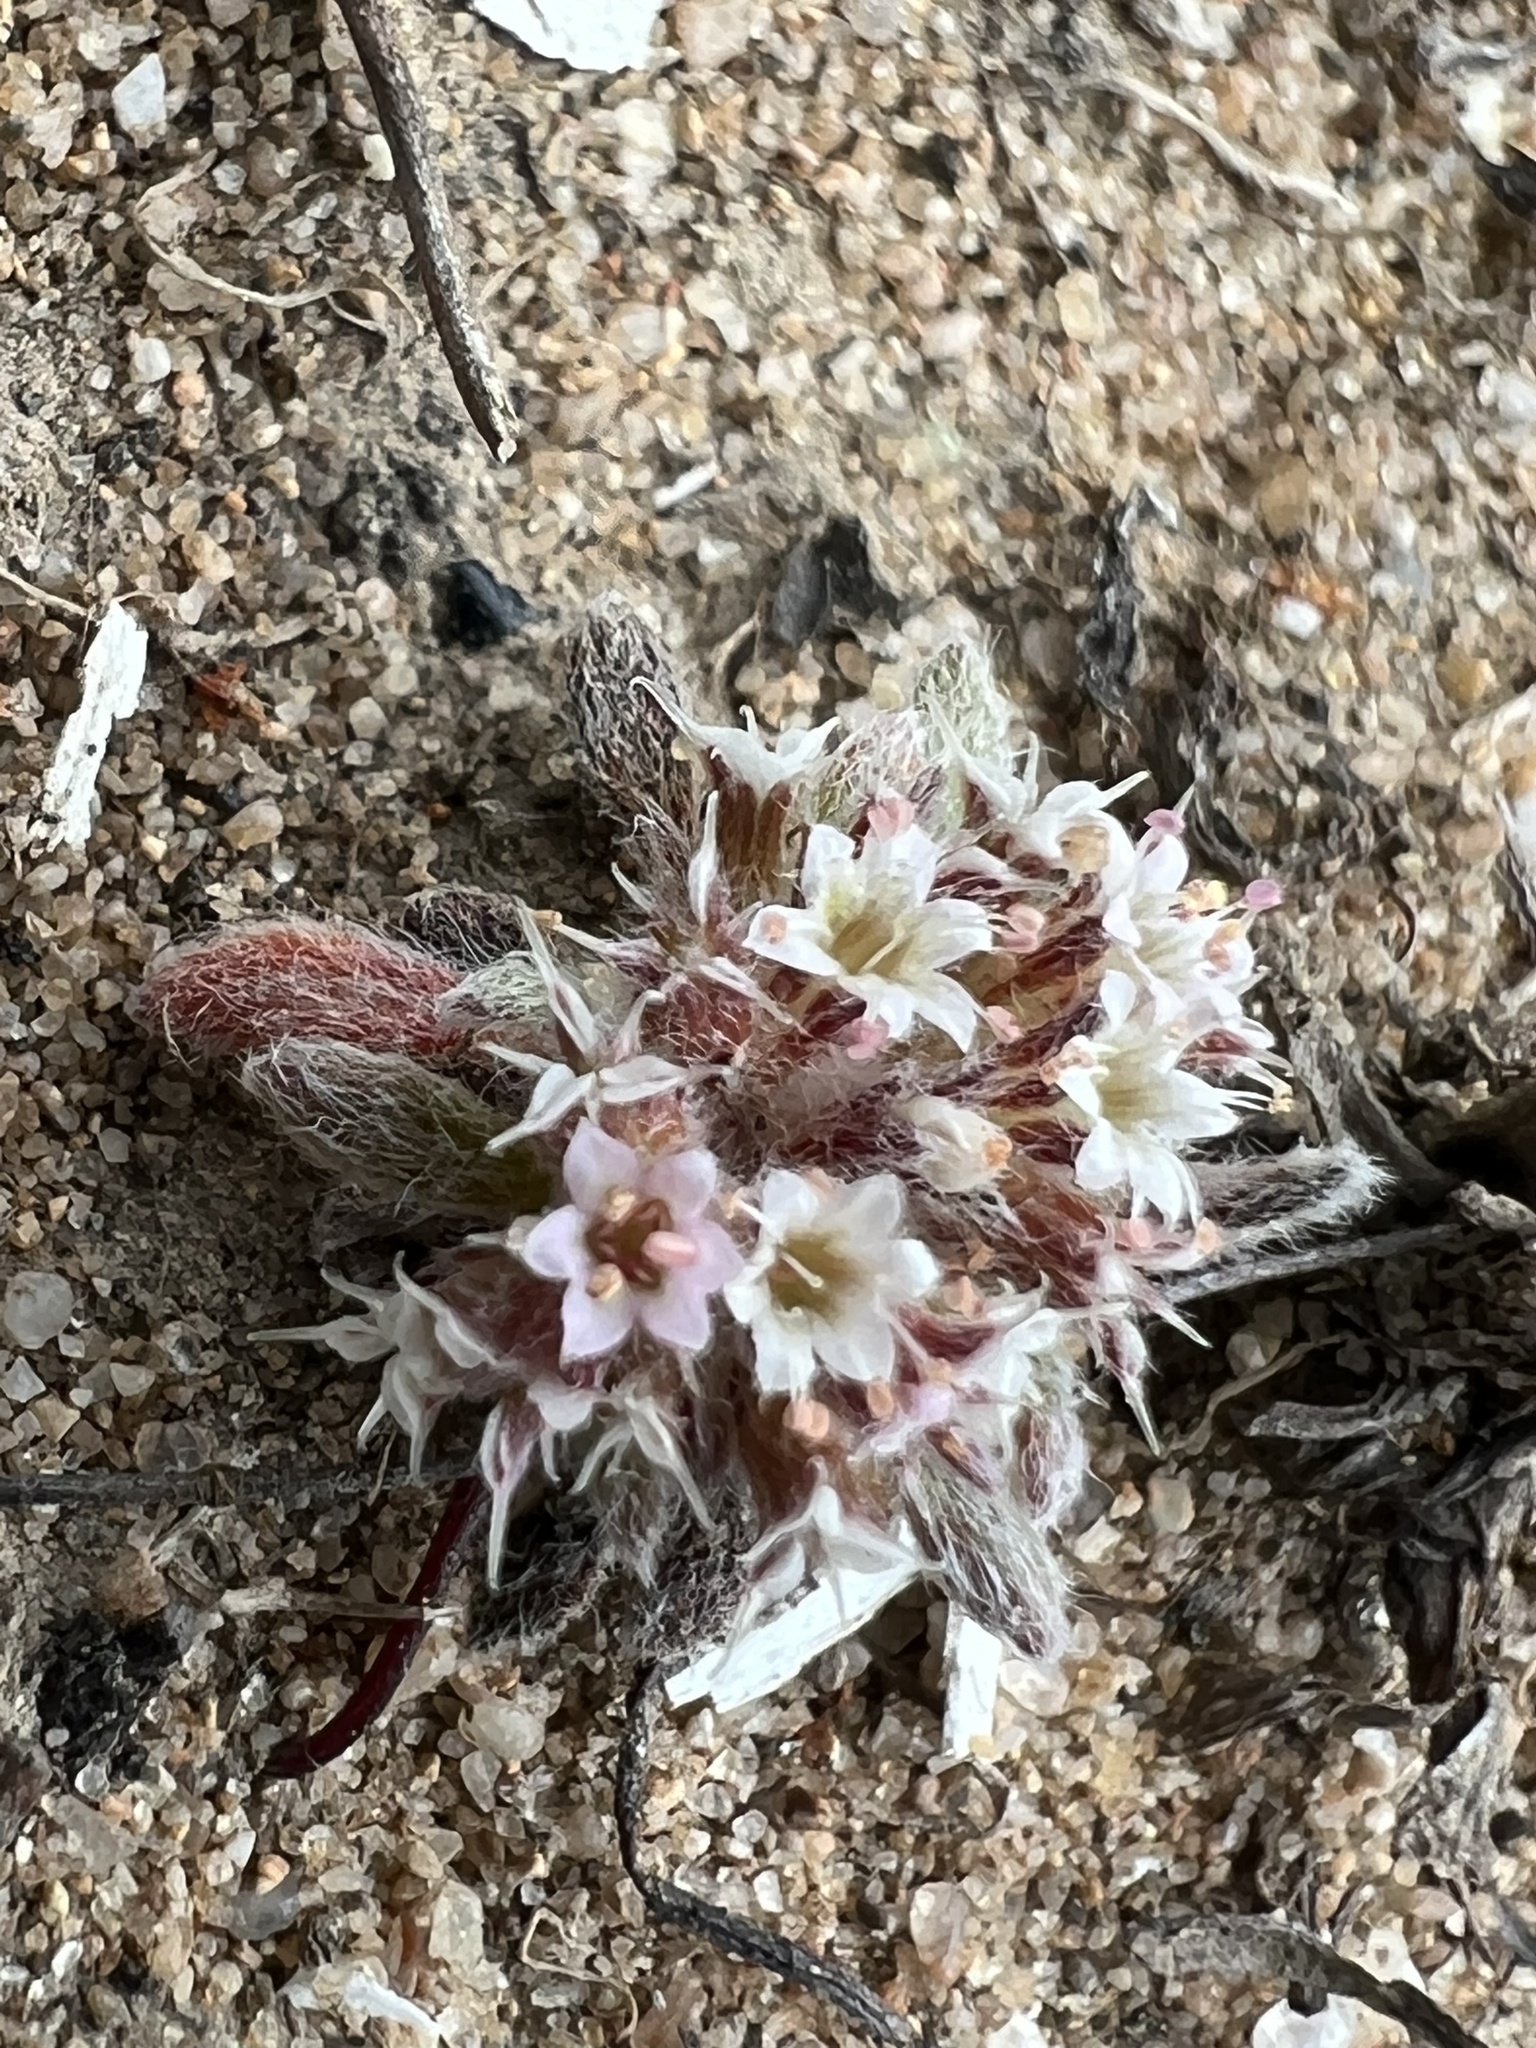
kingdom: Plantae
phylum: Tracheophyta
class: Magnoliopsida
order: Caryophyllales
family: Polygonaceae
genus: Chorizanthe
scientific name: Chorizanthe pungens
